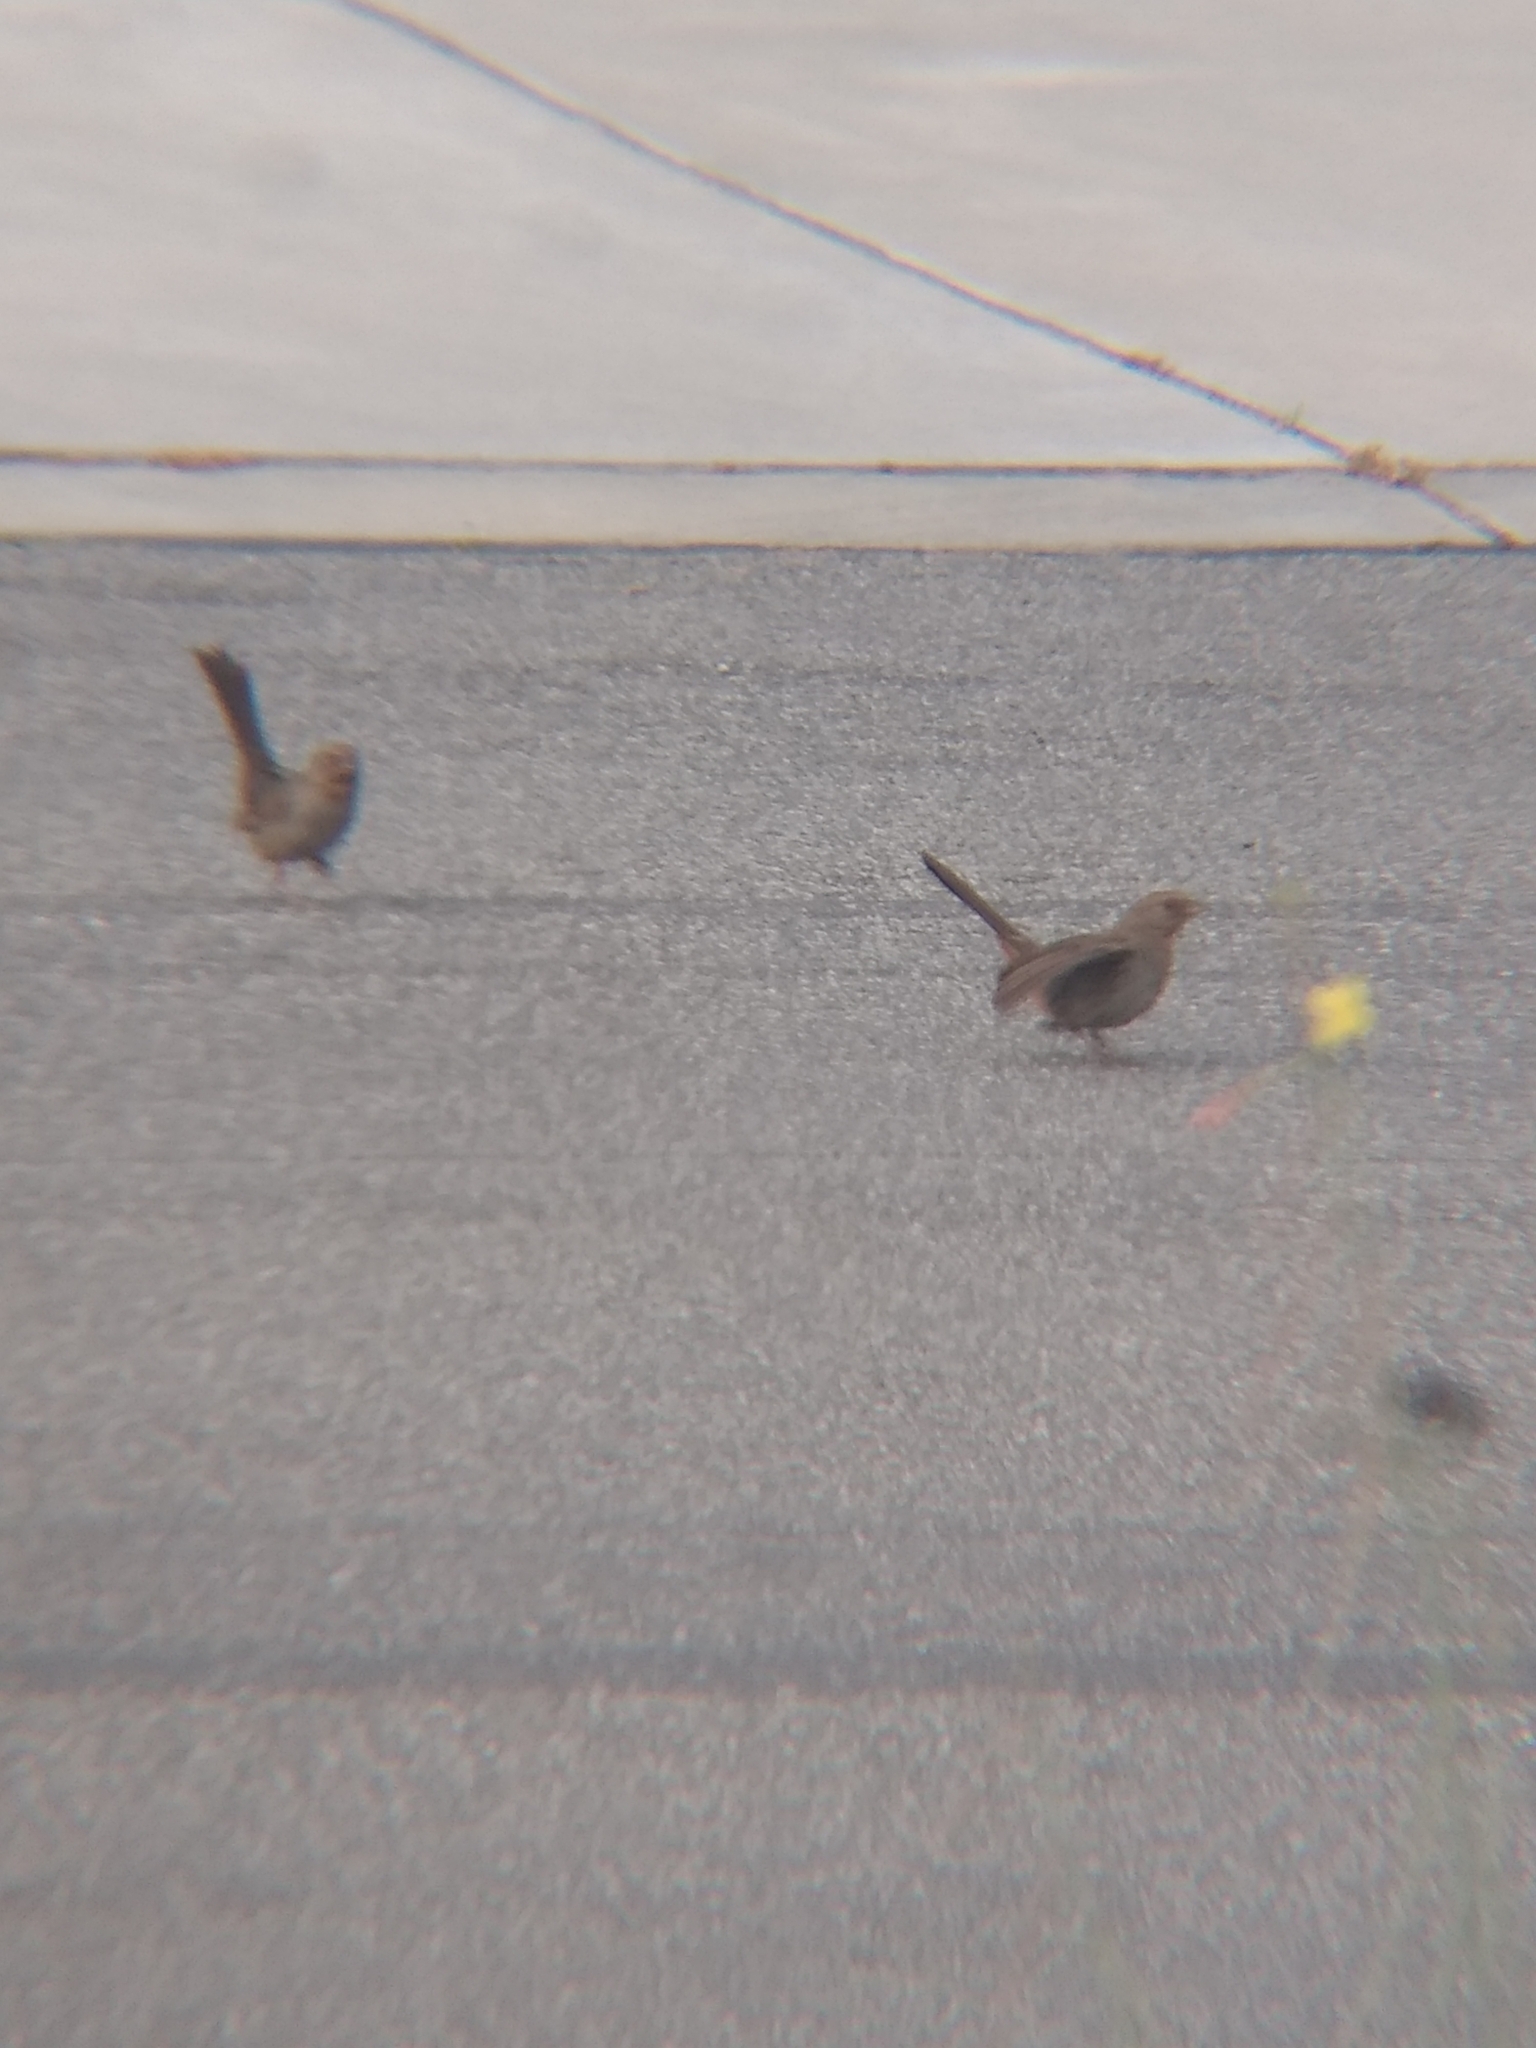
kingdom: Animalia
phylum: Chordata
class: Aves
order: Passeriformes
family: Passerellidae
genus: Melozone
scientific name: Melozone crissalis
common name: California towhee
